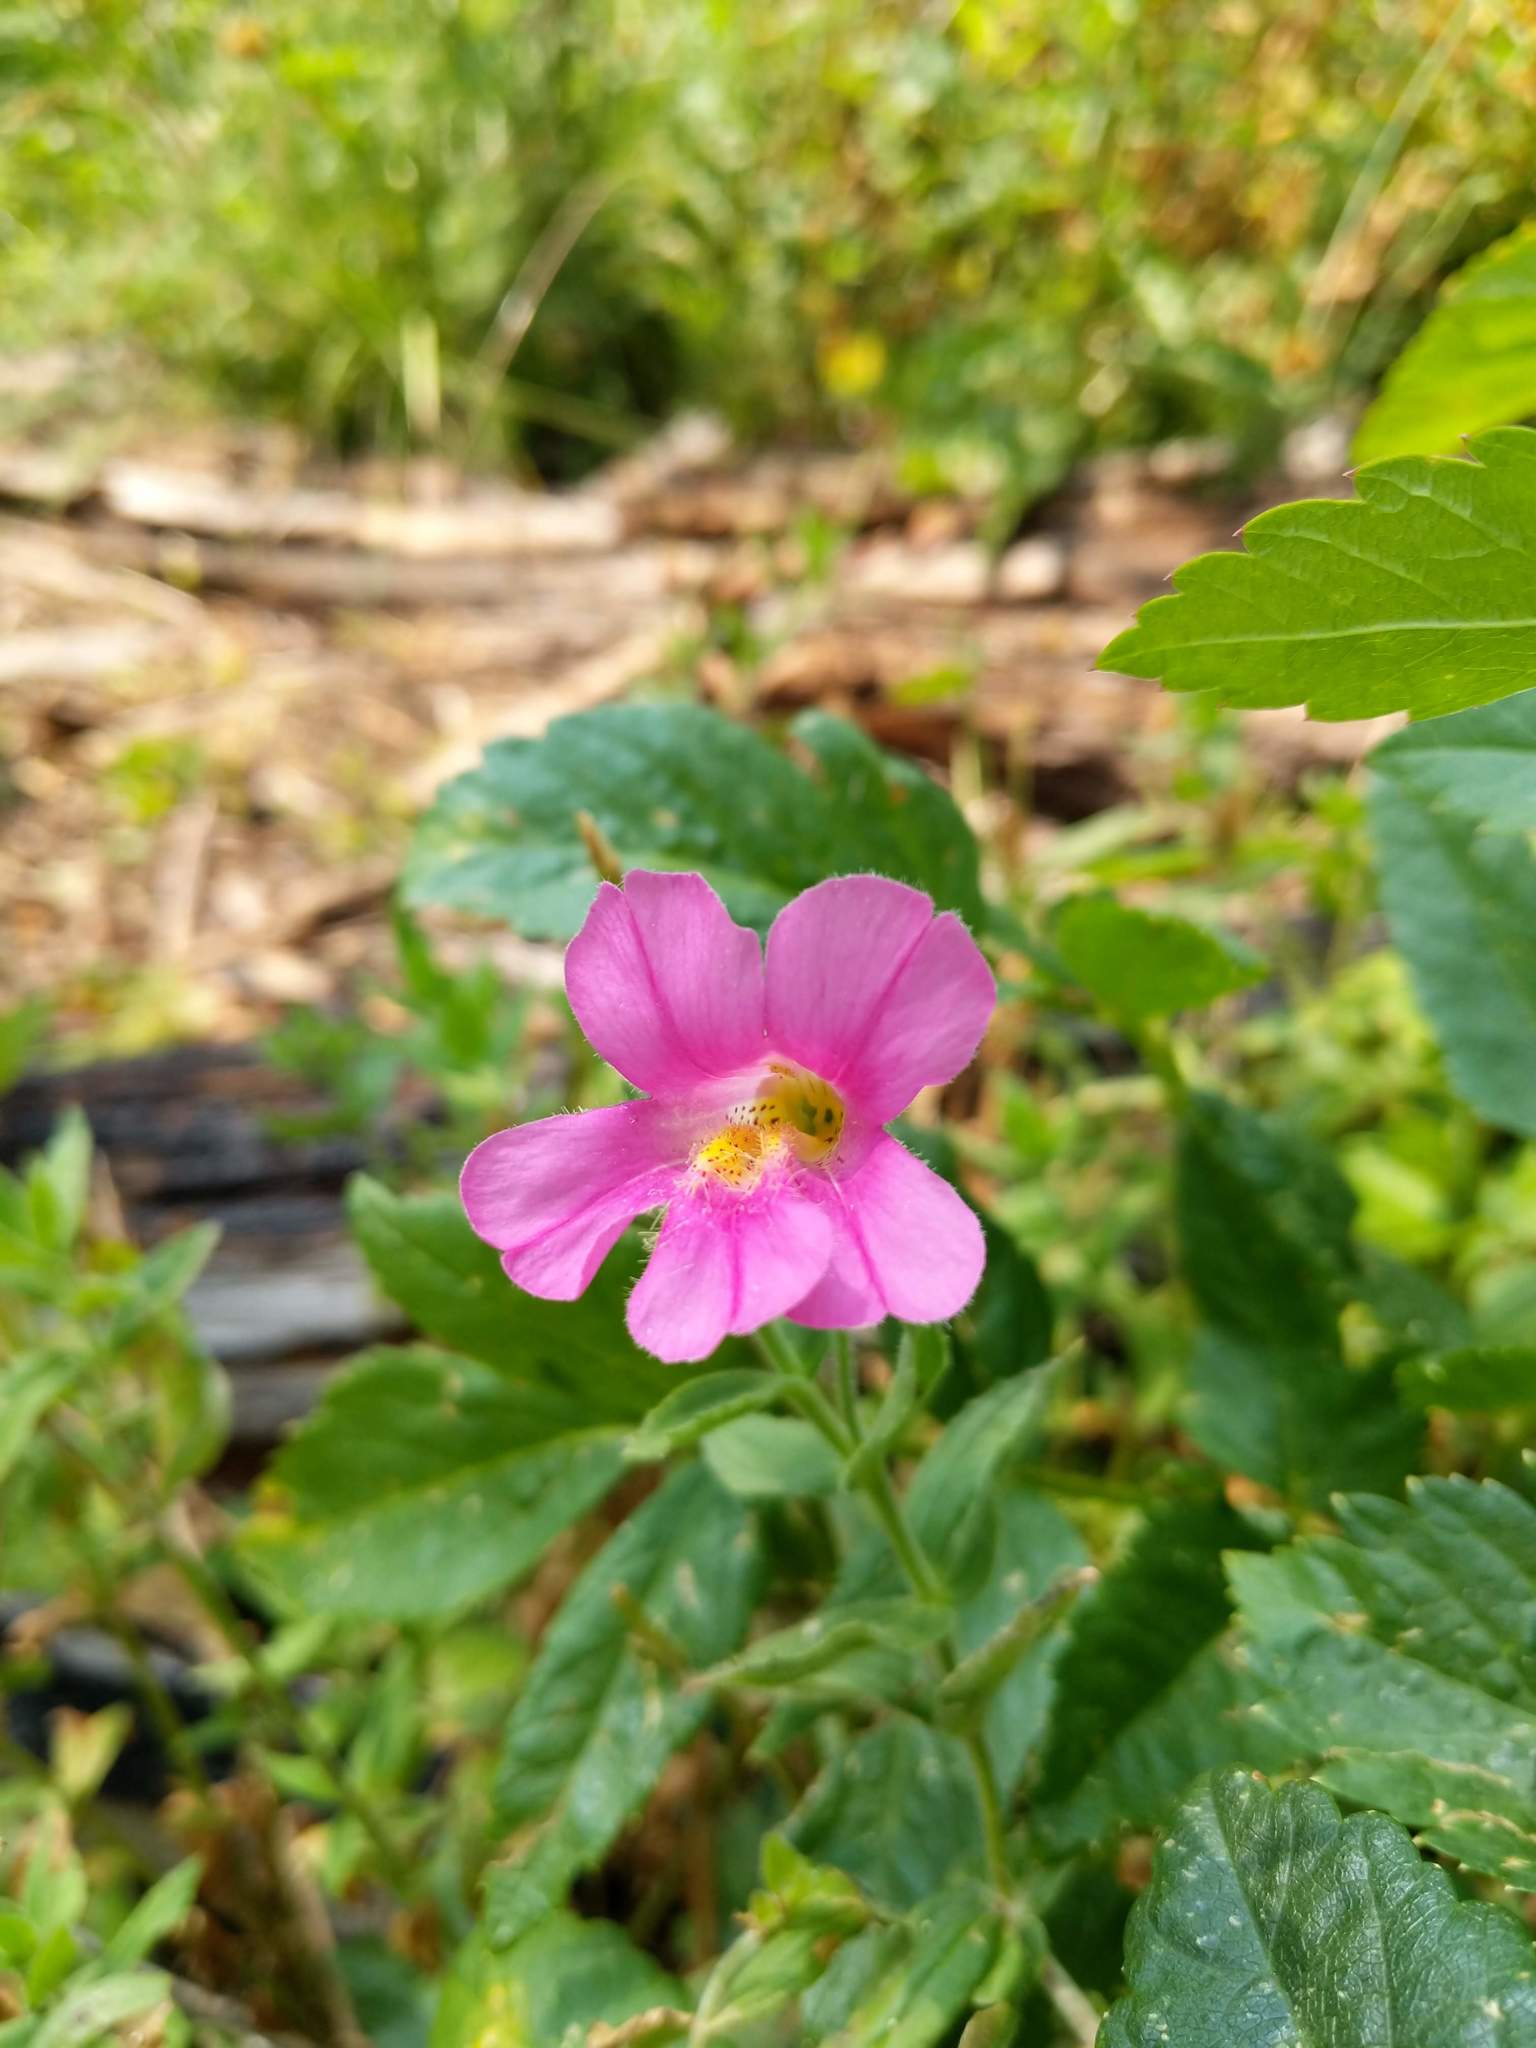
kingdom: Plantae
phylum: Tracheophyta
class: Magnoliopsida
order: Lamiales
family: Phrymaceae
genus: Erythranthe
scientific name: Erythranthe lewisii
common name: Lewis's monkey-flower
